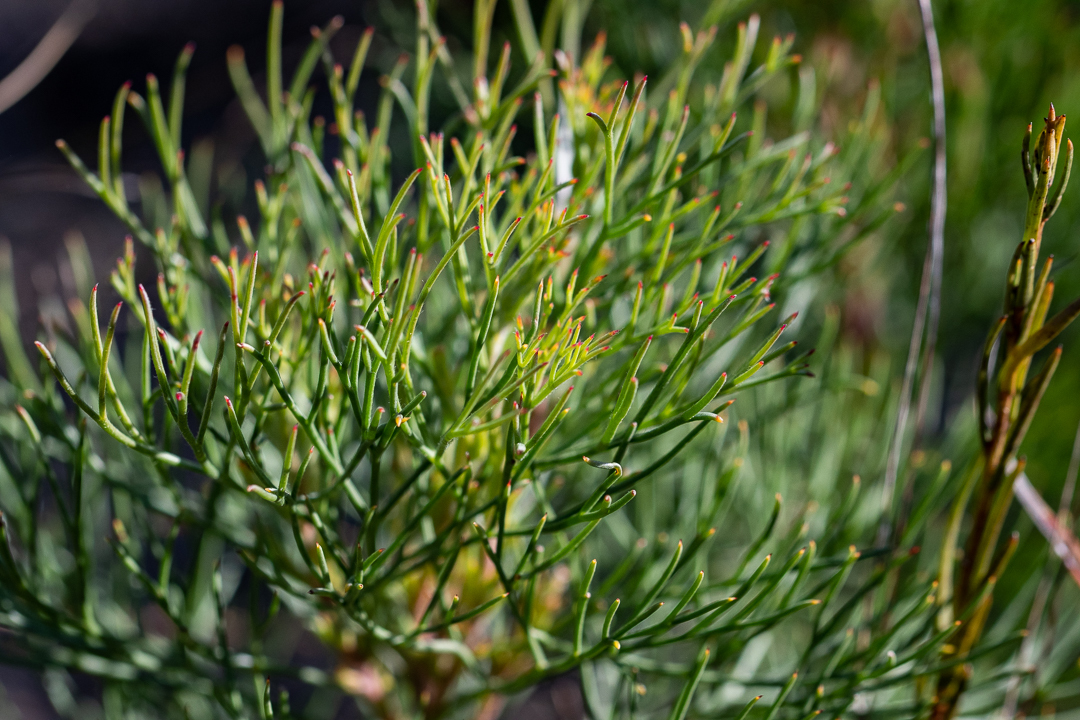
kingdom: Plantae
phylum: Tracheophyta
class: Magnoliopsida
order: Proteales
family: Proteaceae
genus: Serruria
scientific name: Serruria fasciflora
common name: Common pin spiderhead
